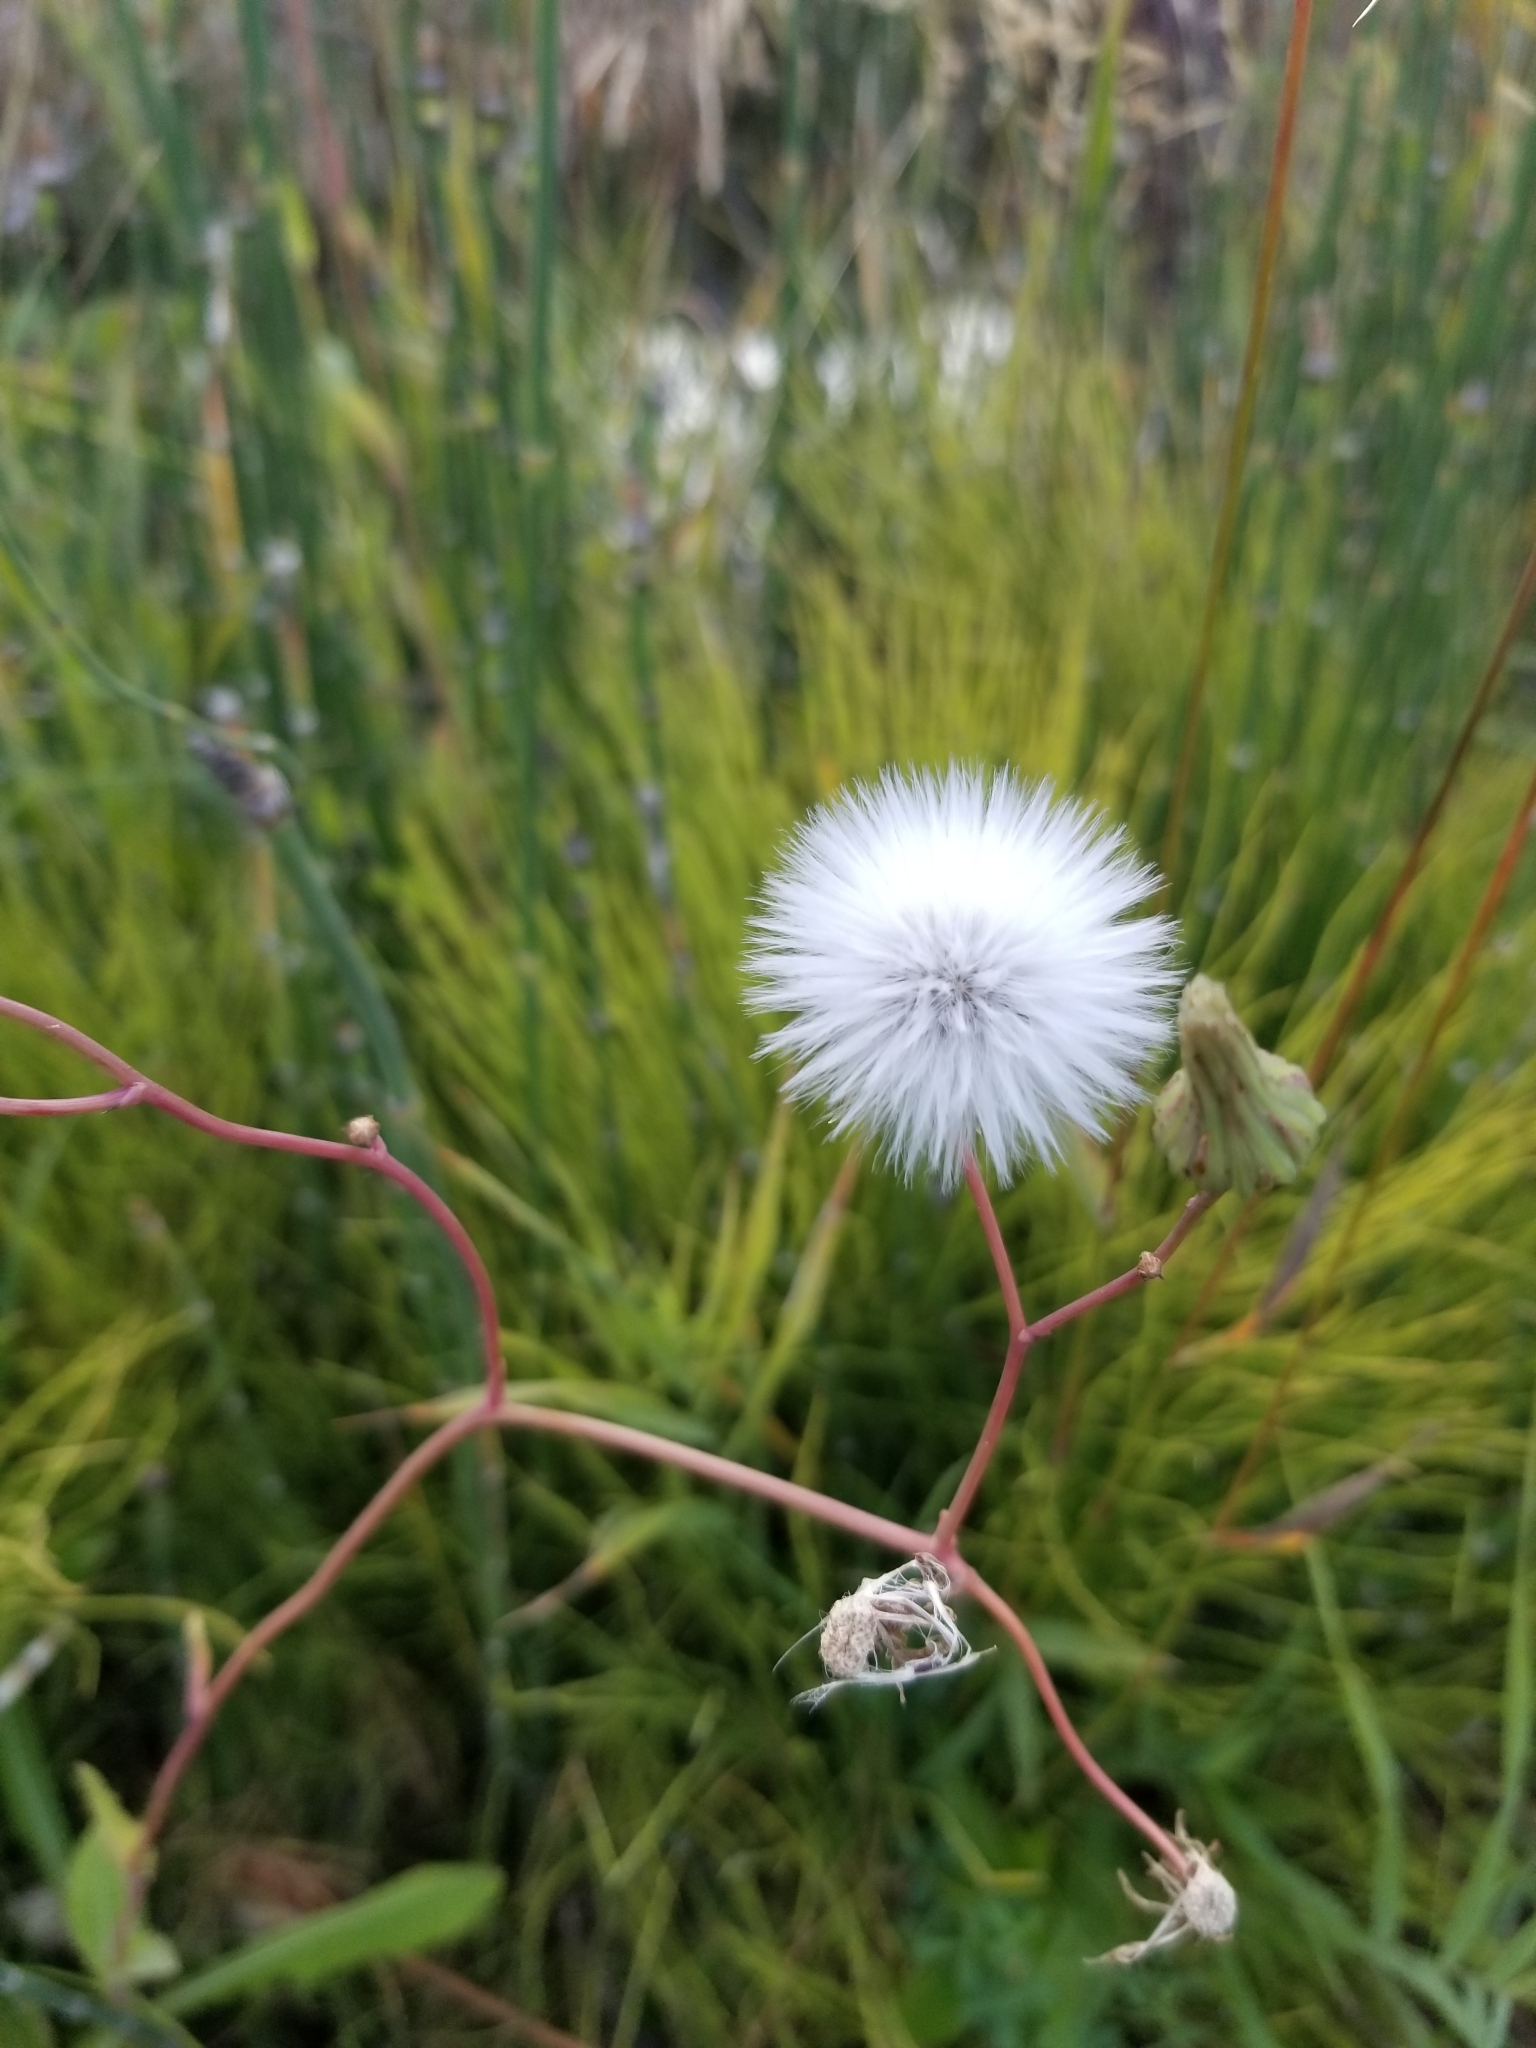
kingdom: Plantae
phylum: Tracheophyta
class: Magnoliopsida
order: Asterales
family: Asteraceae
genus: Sonchus
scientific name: Sonchus arvensis
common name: Perennial sow-thistle
